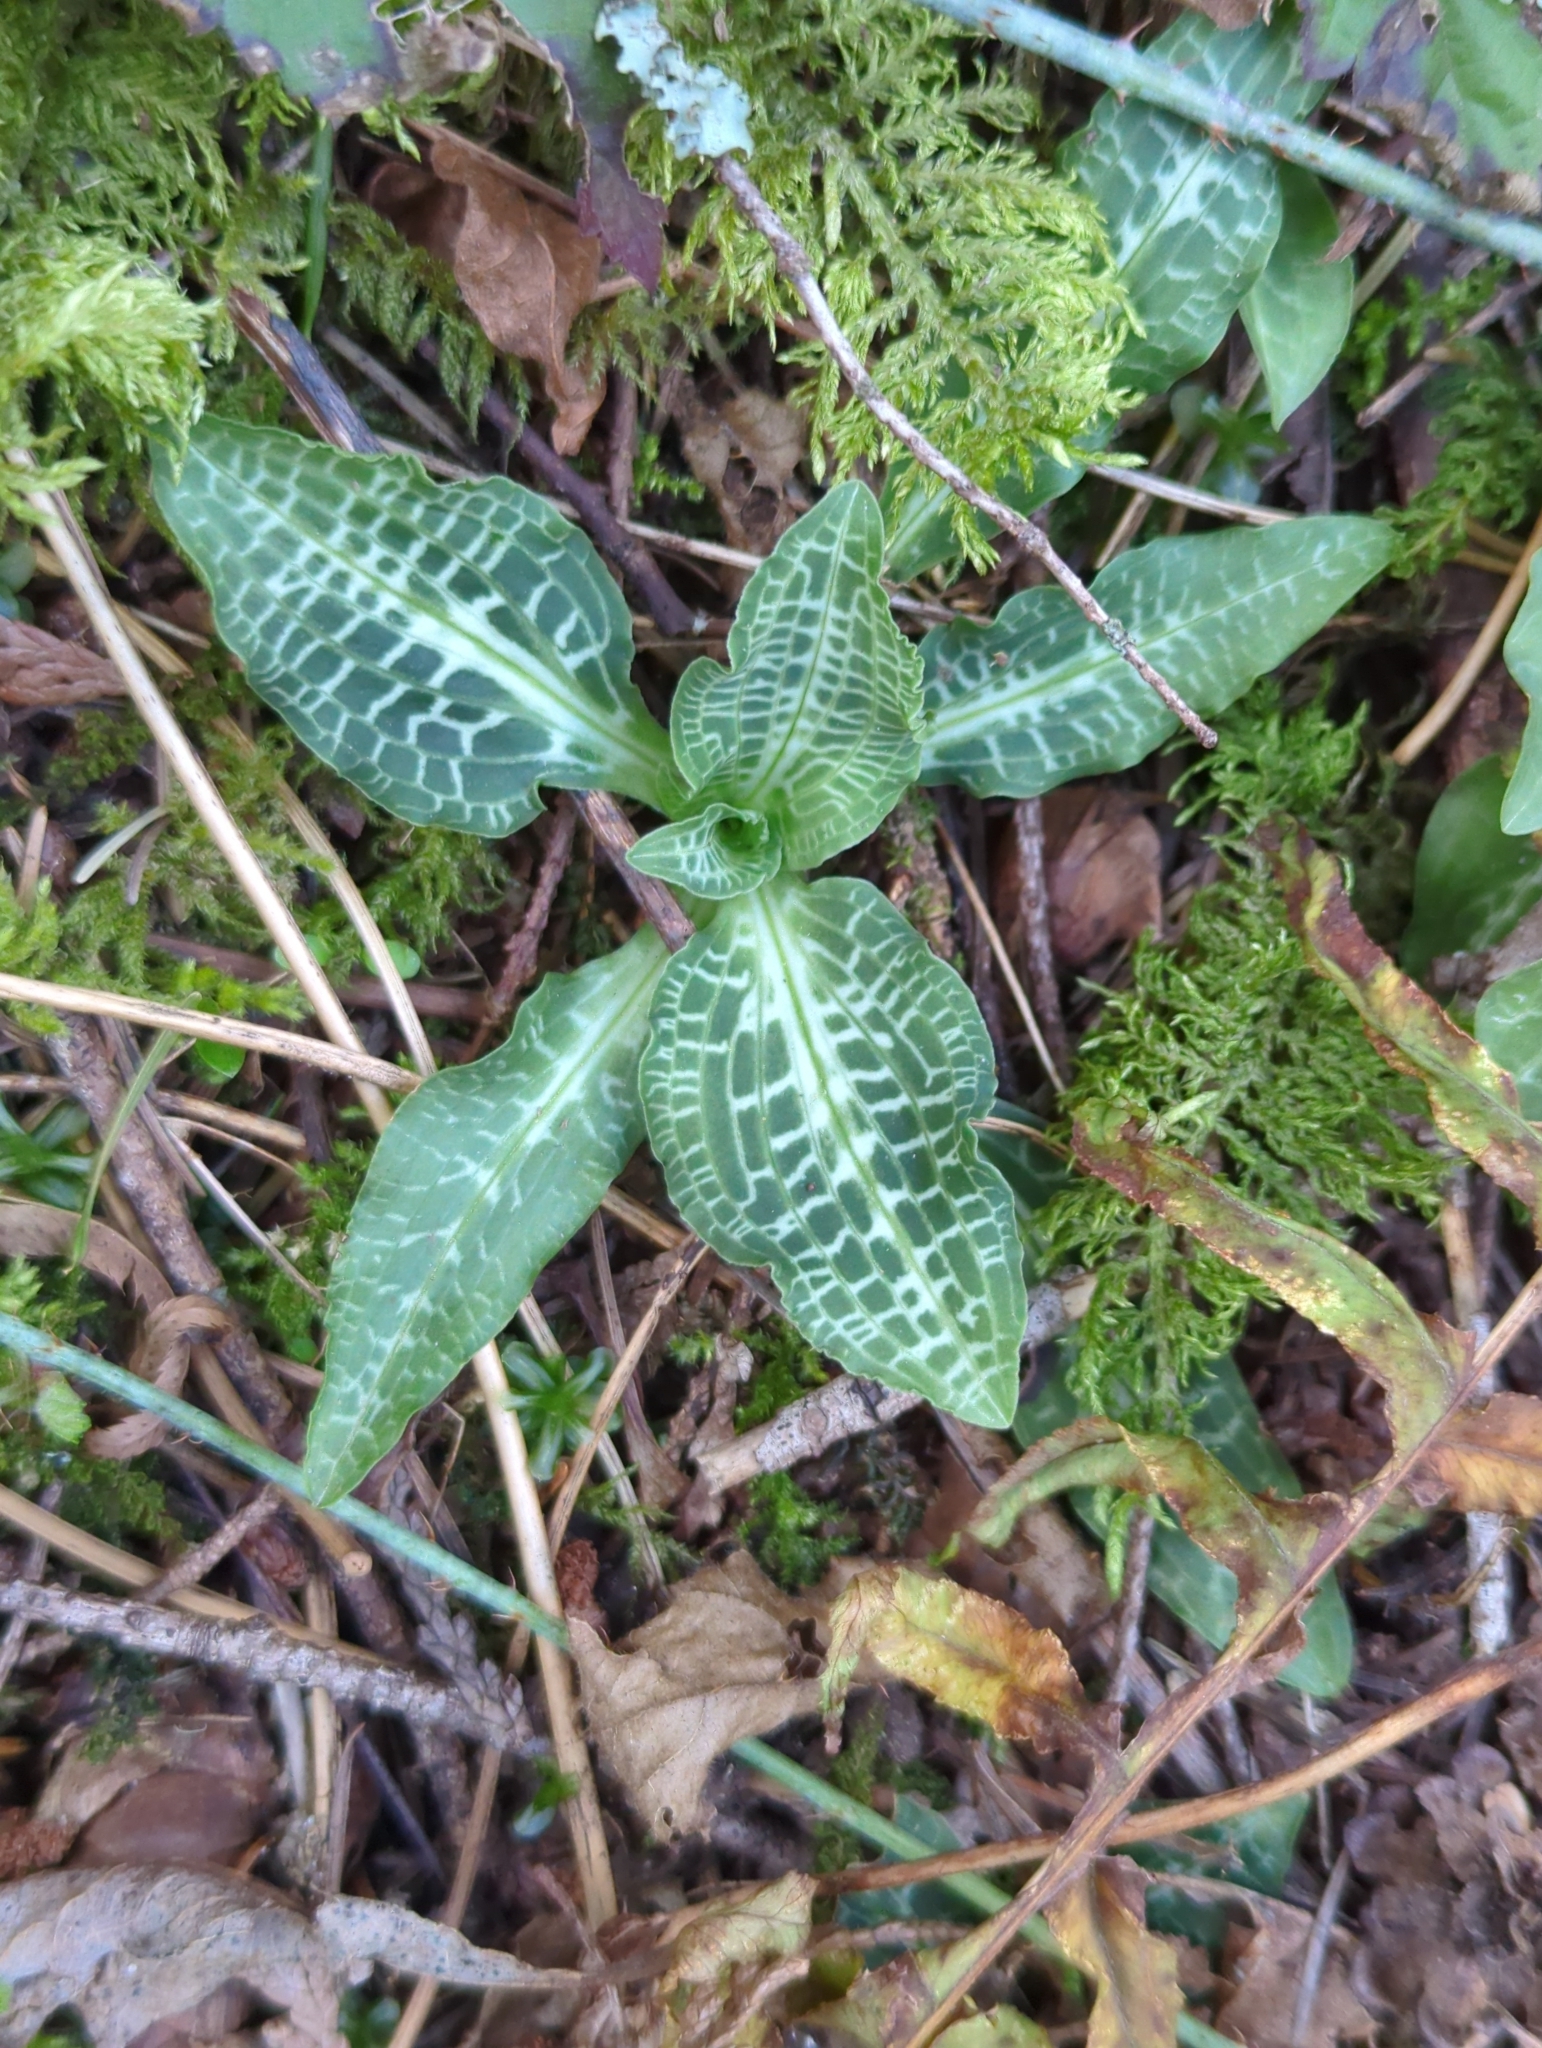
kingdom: Plantae
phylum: Tracheophyta
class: Liliopsida
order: Asparagales
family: Orchidaceae
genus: Goodyera
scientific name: Goodyera oblongifolia
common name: Giant rattlesnake-plantain
